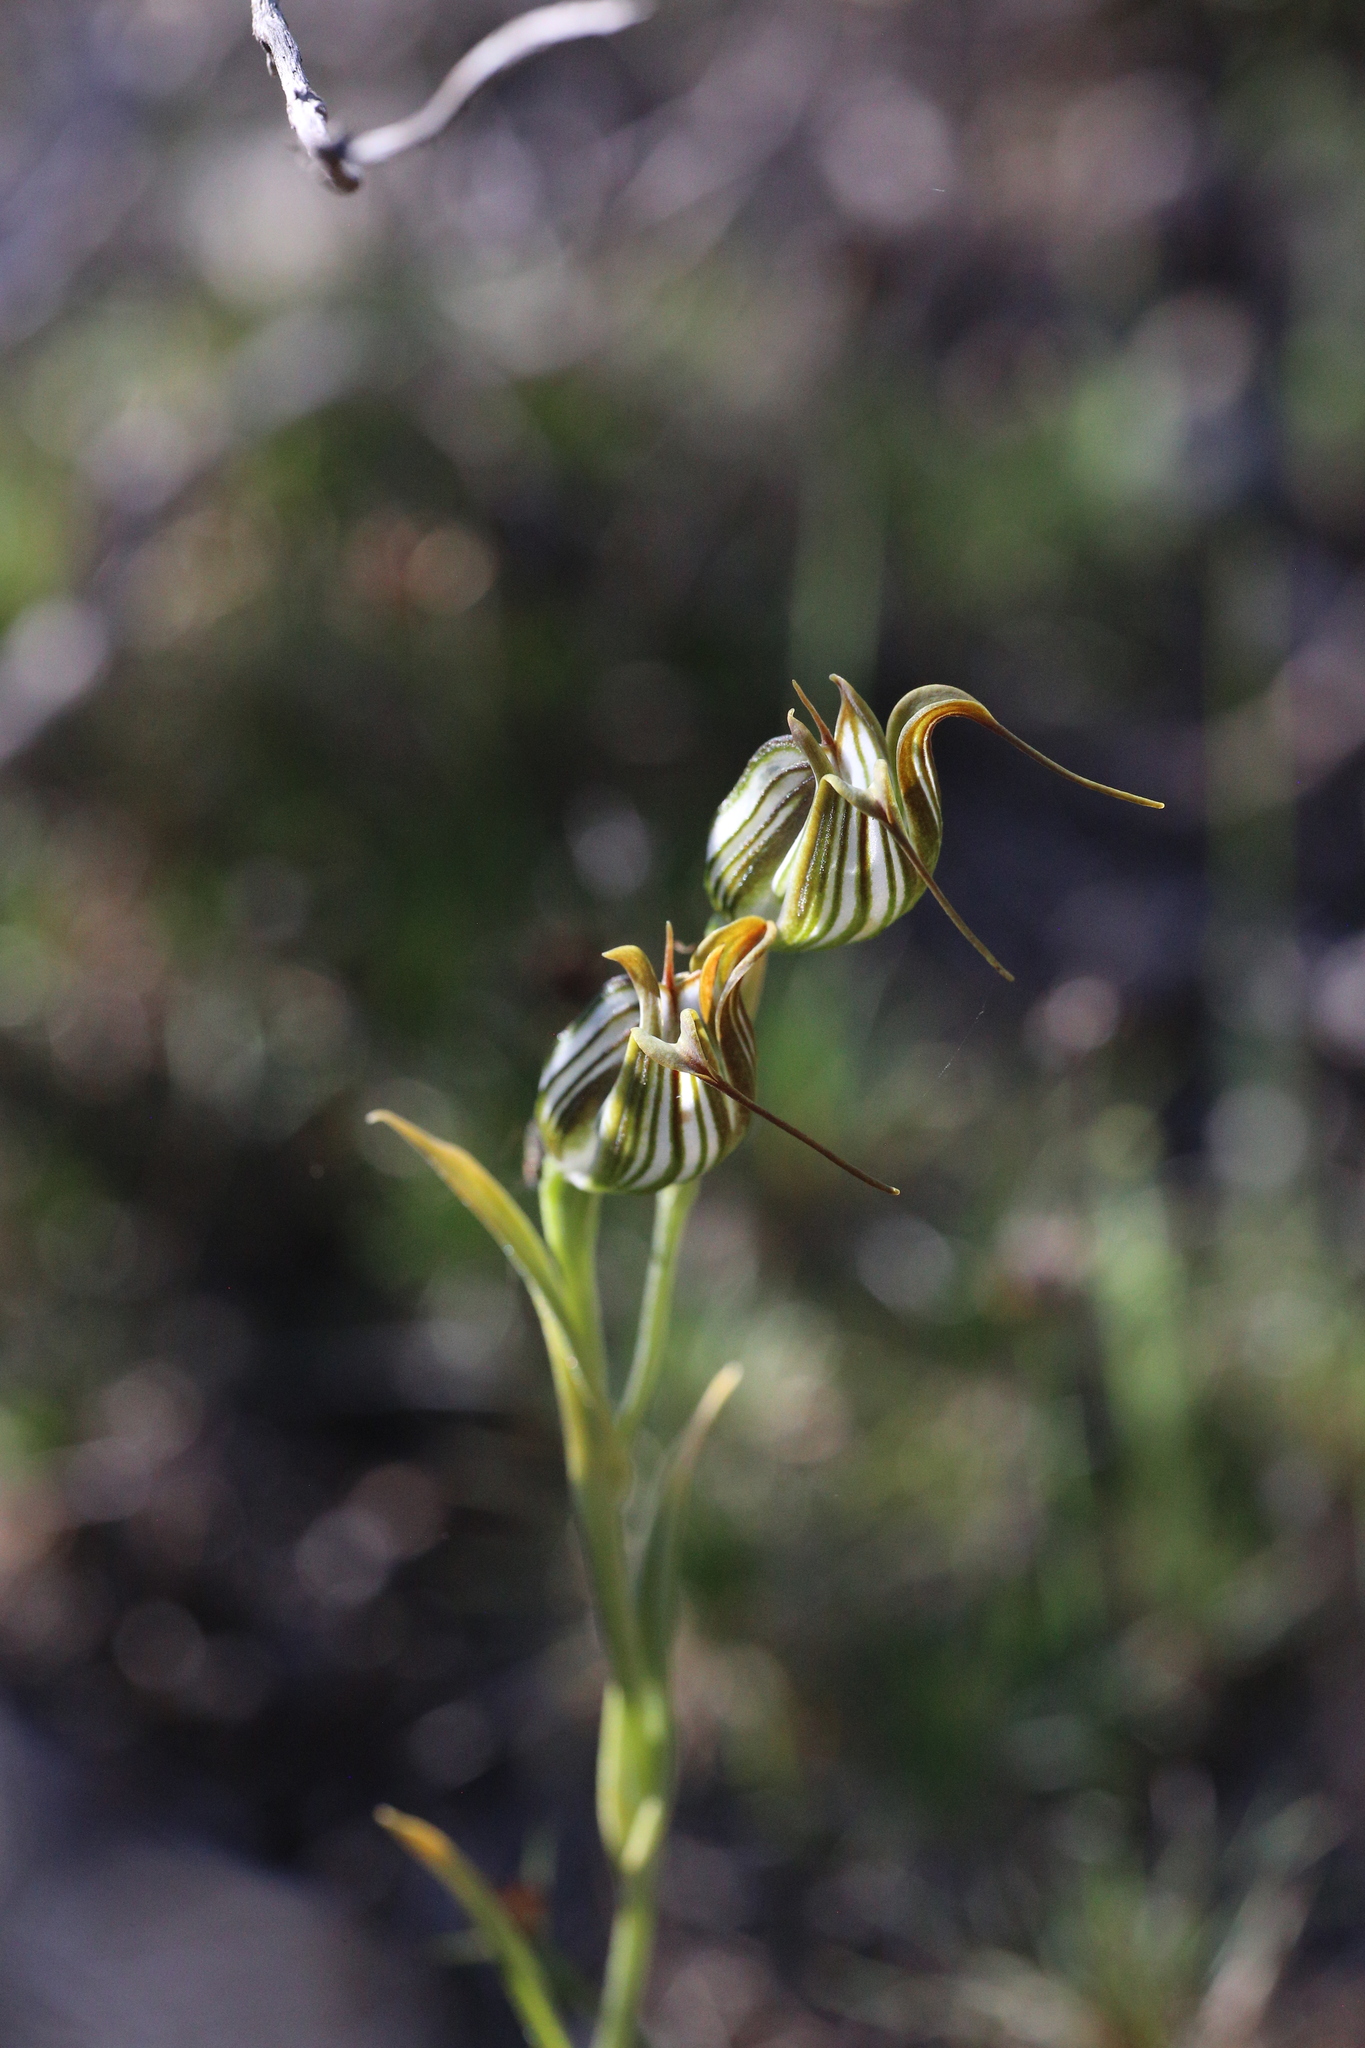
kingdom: Plantae
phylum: Tracheophyta
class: Liliopsida
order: Asparagales
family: Orchidaceae
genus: Pterostylis
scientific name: Pterostylis recurva
